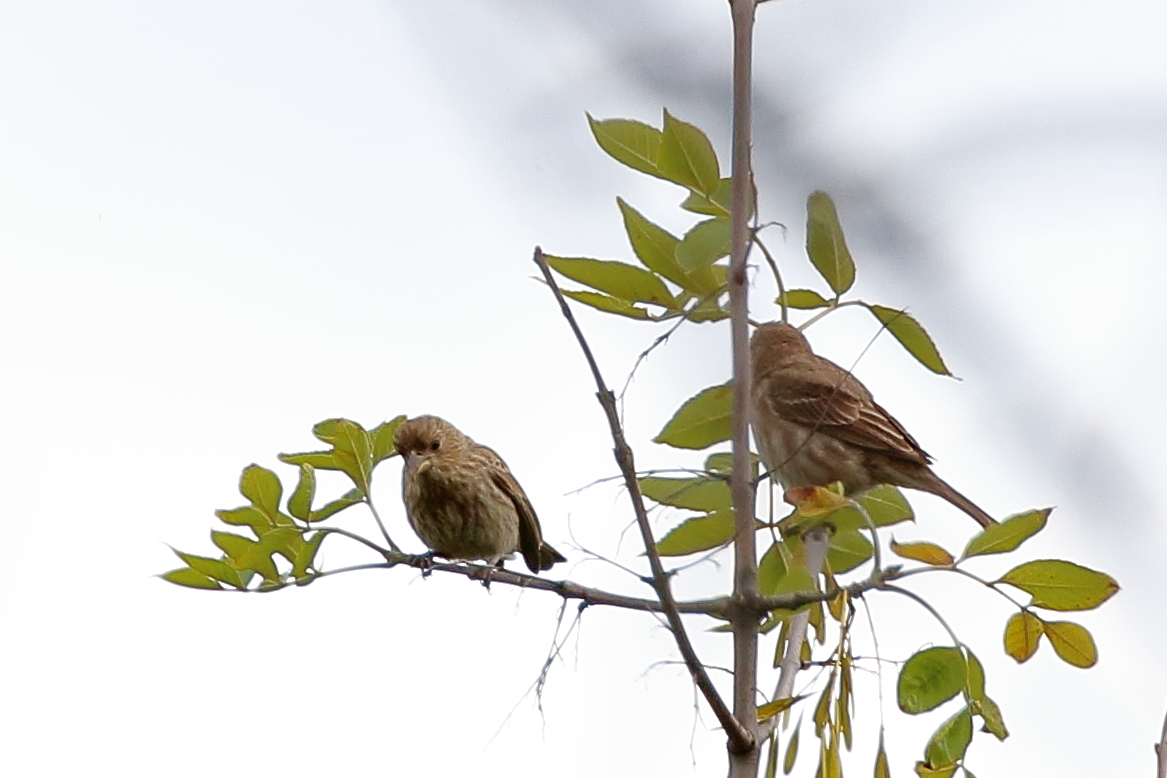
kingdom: Animalia
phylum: Chordata
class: Aves
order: Passeriformes
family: Fringillidae
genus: Haemorhous
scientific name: Haemorhous mexicanus
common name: House finch
